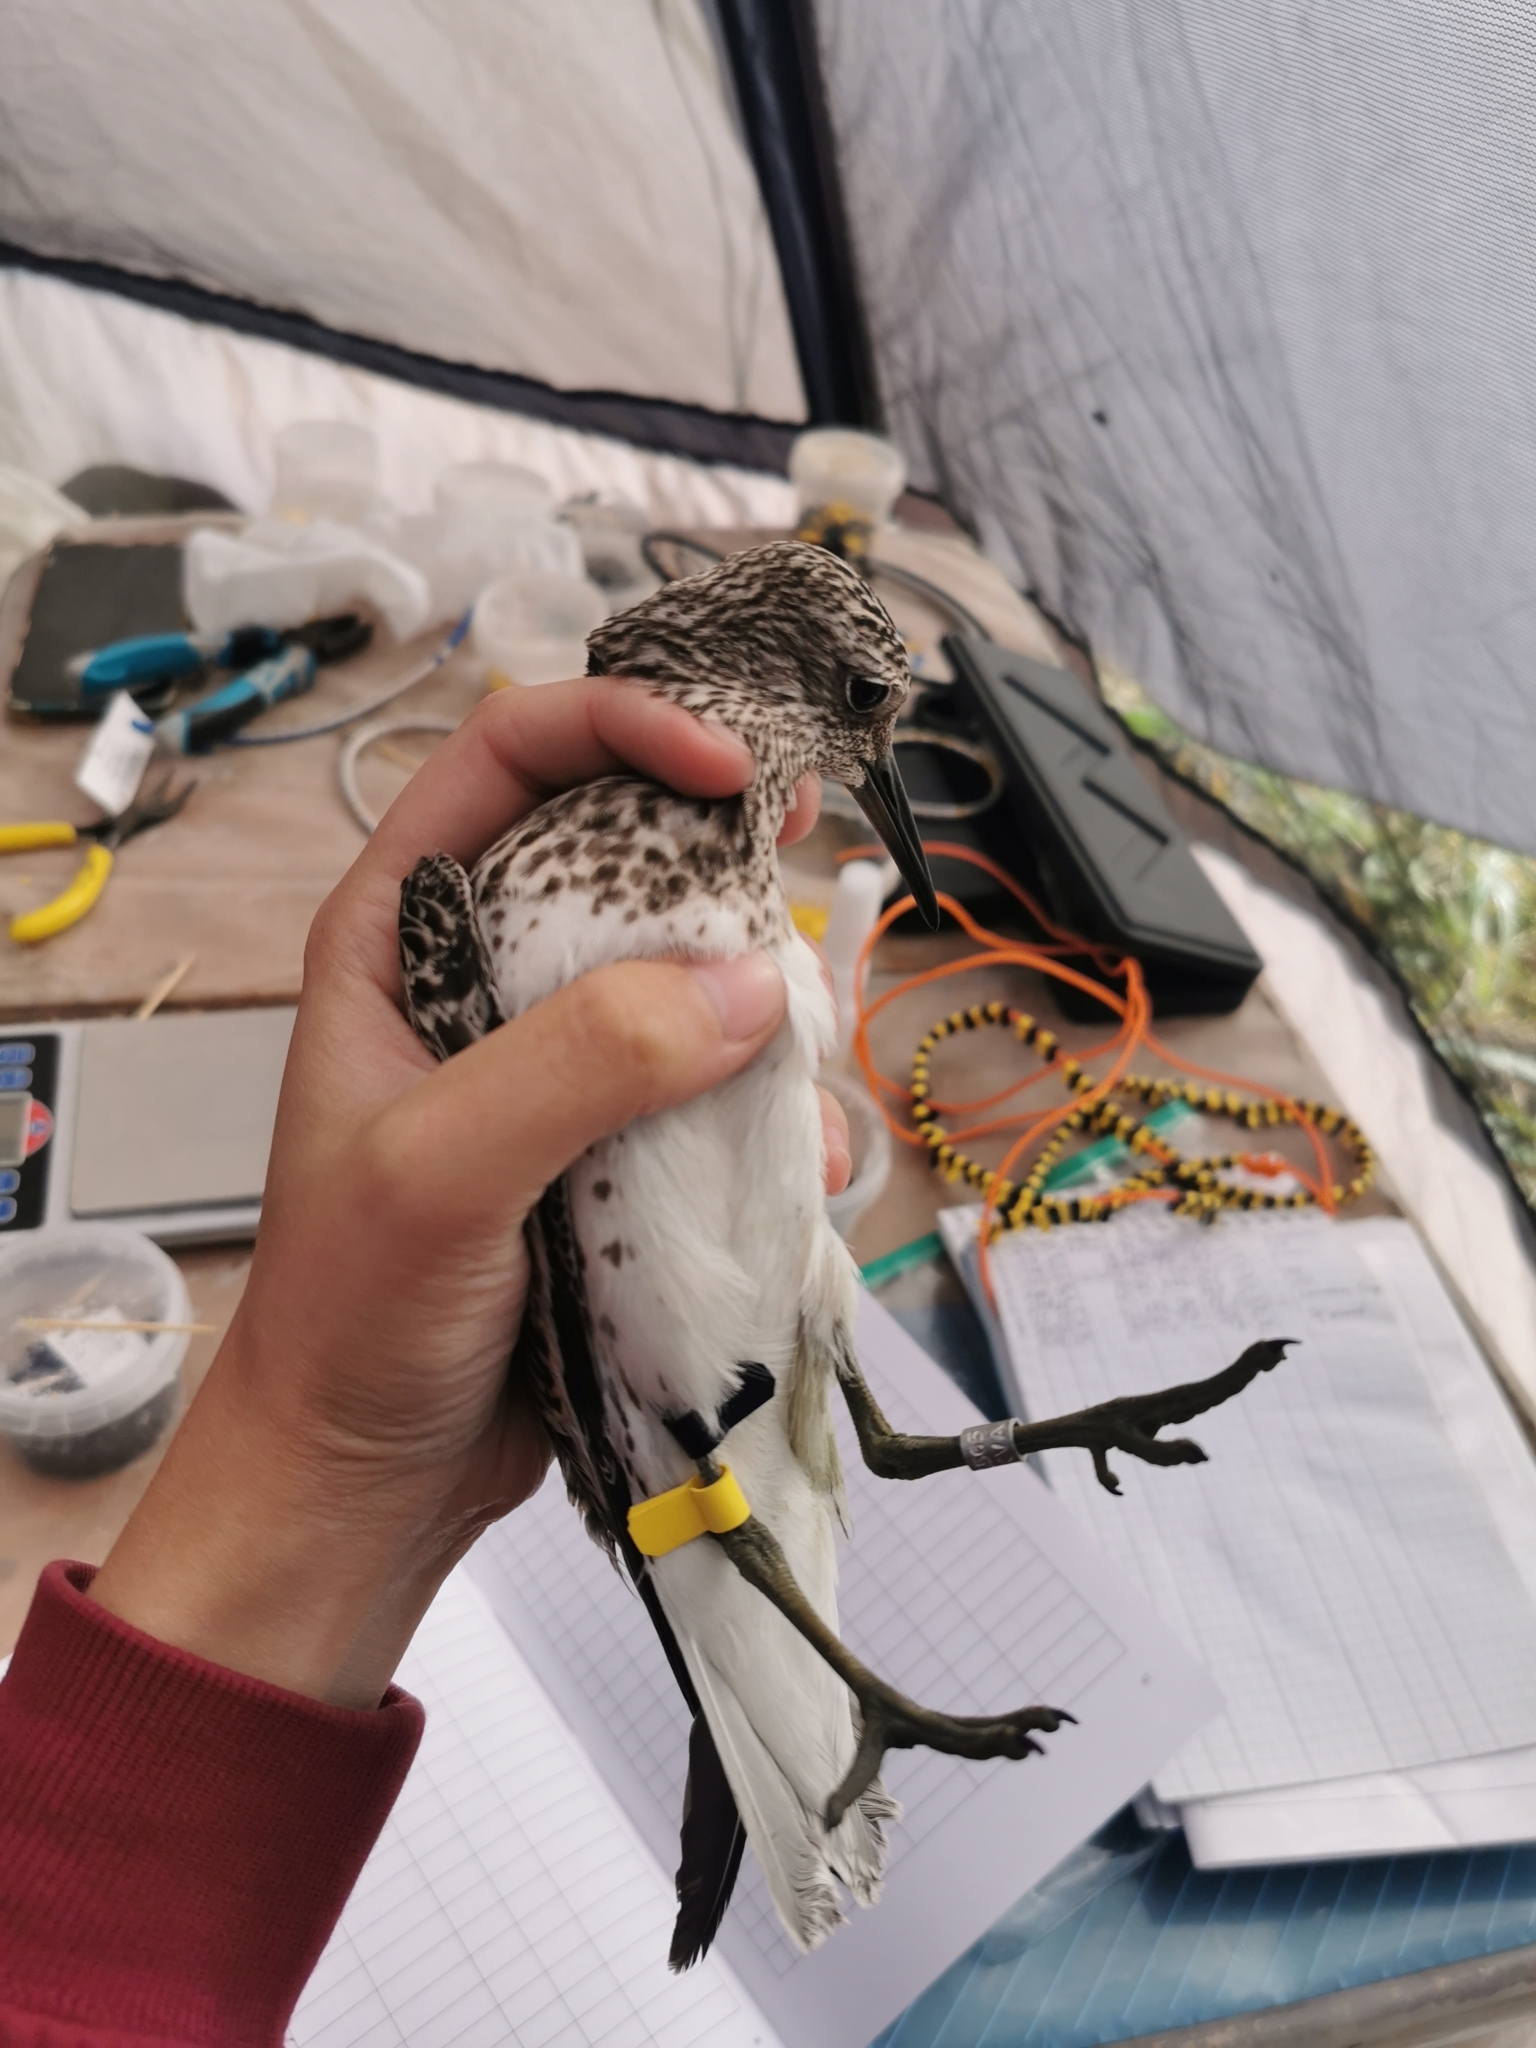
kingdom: Animalia
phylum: Chordata
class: Aves
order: Charadriiformes
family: Scolopacidae
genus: Calidris
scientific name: Calidris tenuirostris
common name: Great knot
